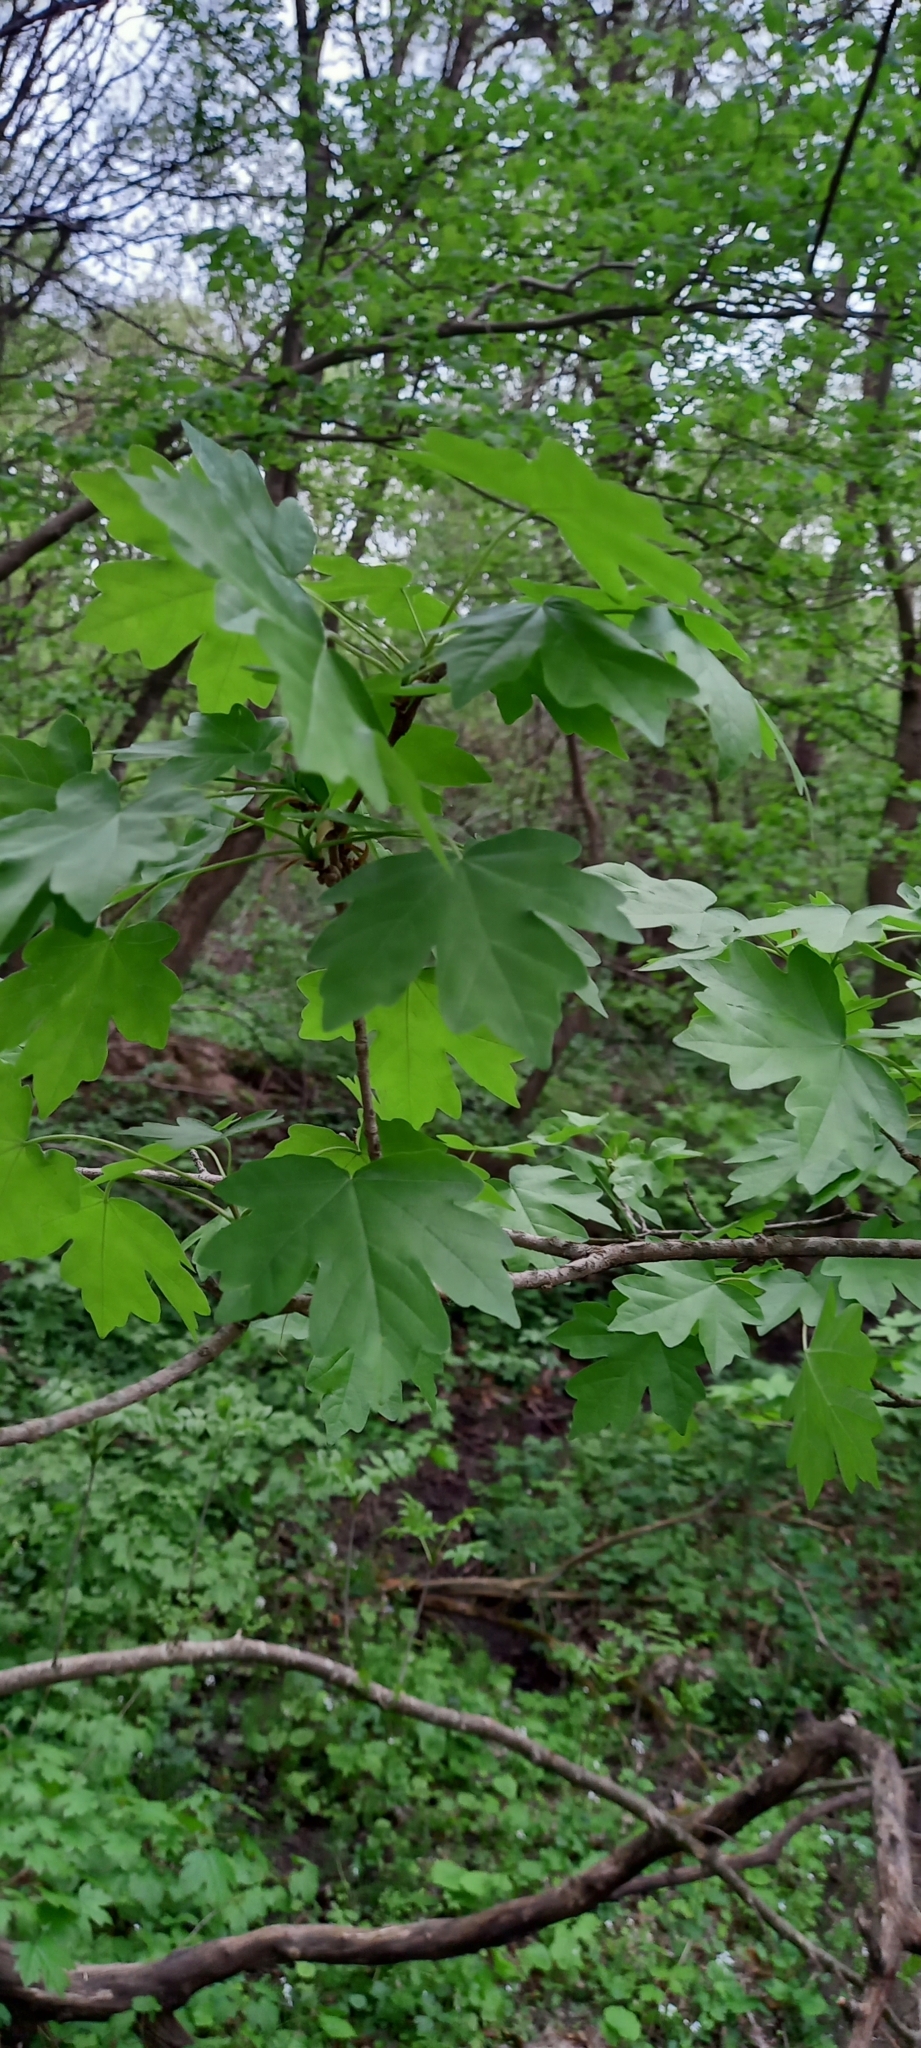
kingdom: Plantae
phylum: Tracheophyta
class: Magnoliopsida
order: Sapindales
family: Sapindaceae
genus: Acer
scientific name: Acer campestre
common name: Field maple
